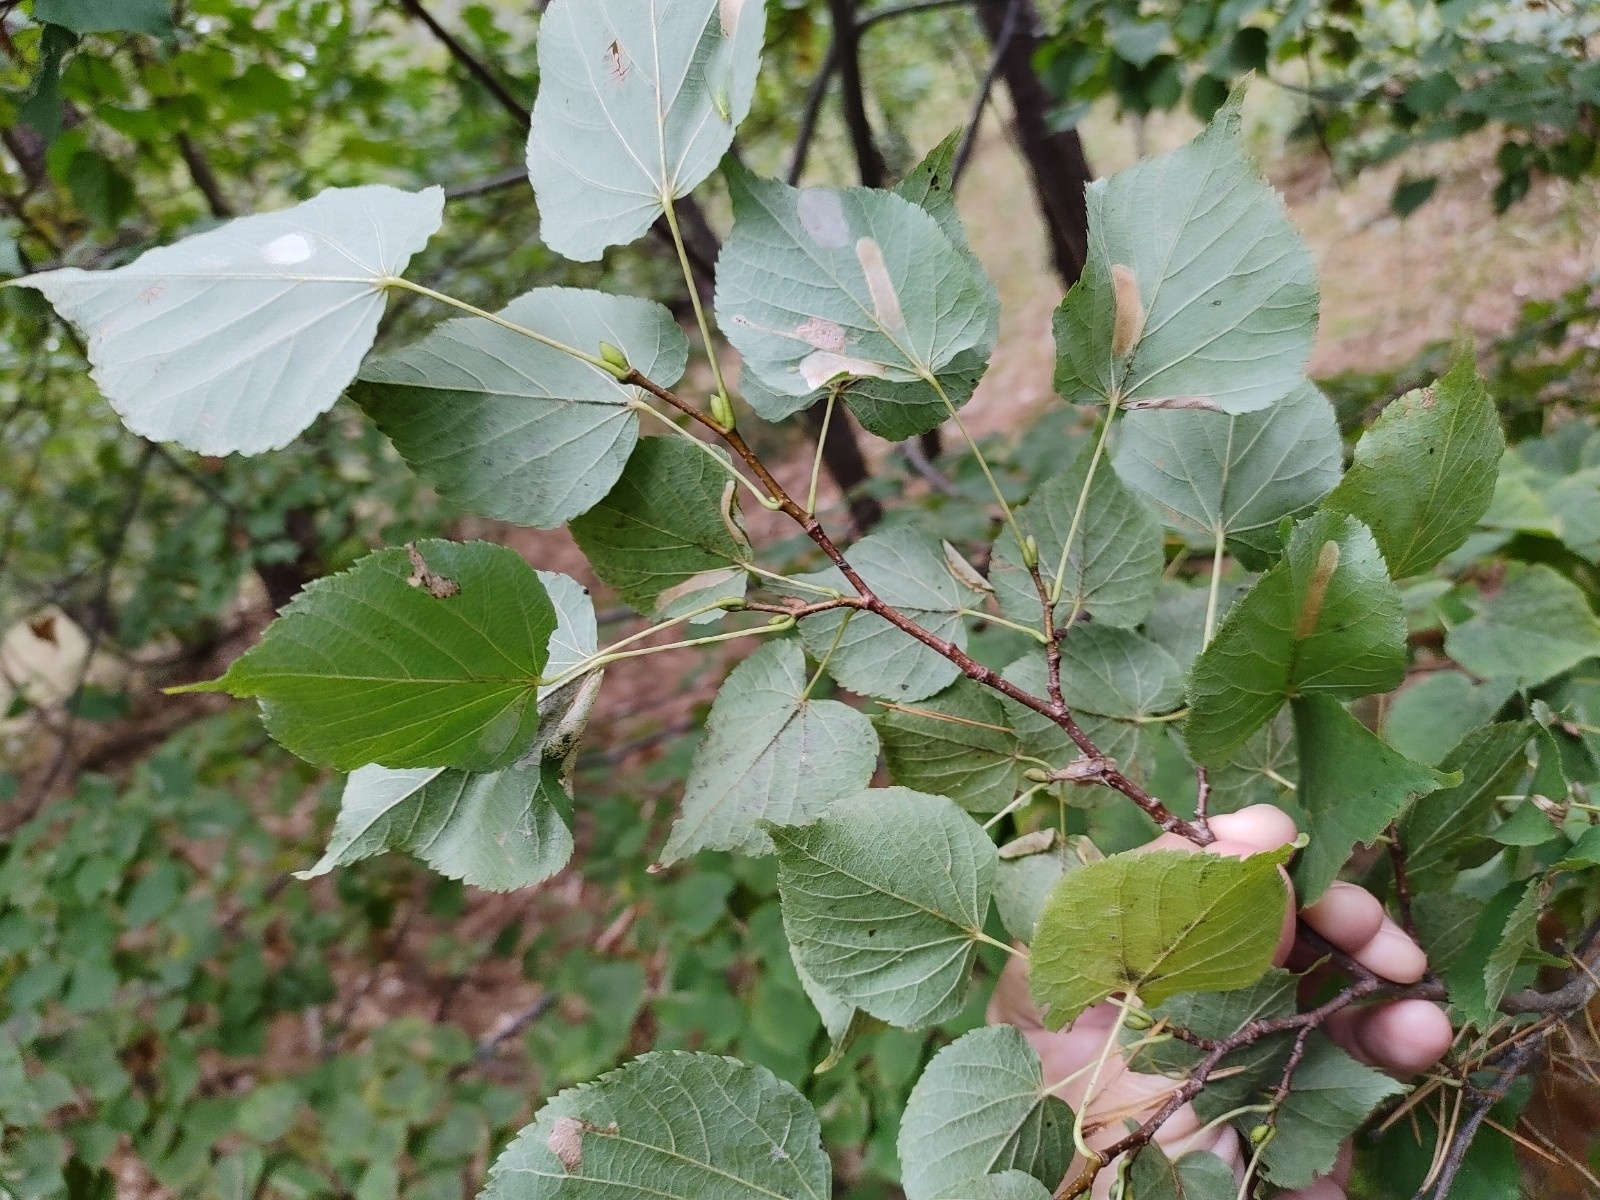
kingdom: Plantae
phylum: Tracheophyta
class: Magnoliopsida
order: Malvales
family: Malvaceae
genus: Tilia
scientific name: Tilia cordata
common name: Small-leaved lime
